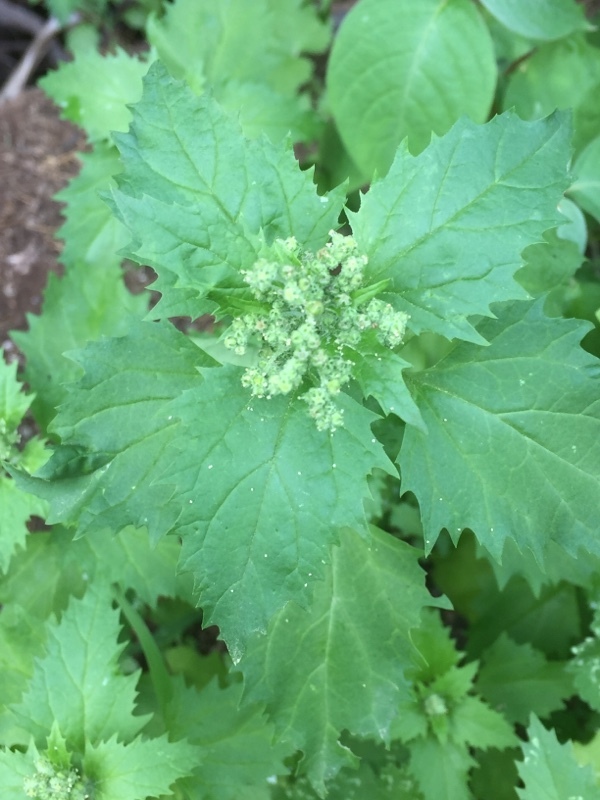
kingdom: Plantae
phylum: Tracheophyta
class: Magnoliopsida
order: Caryophyllales
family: Amaranthaceae
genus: Chenopodiastrum
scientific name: Chenopodiastrum murale
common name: Sowbane
